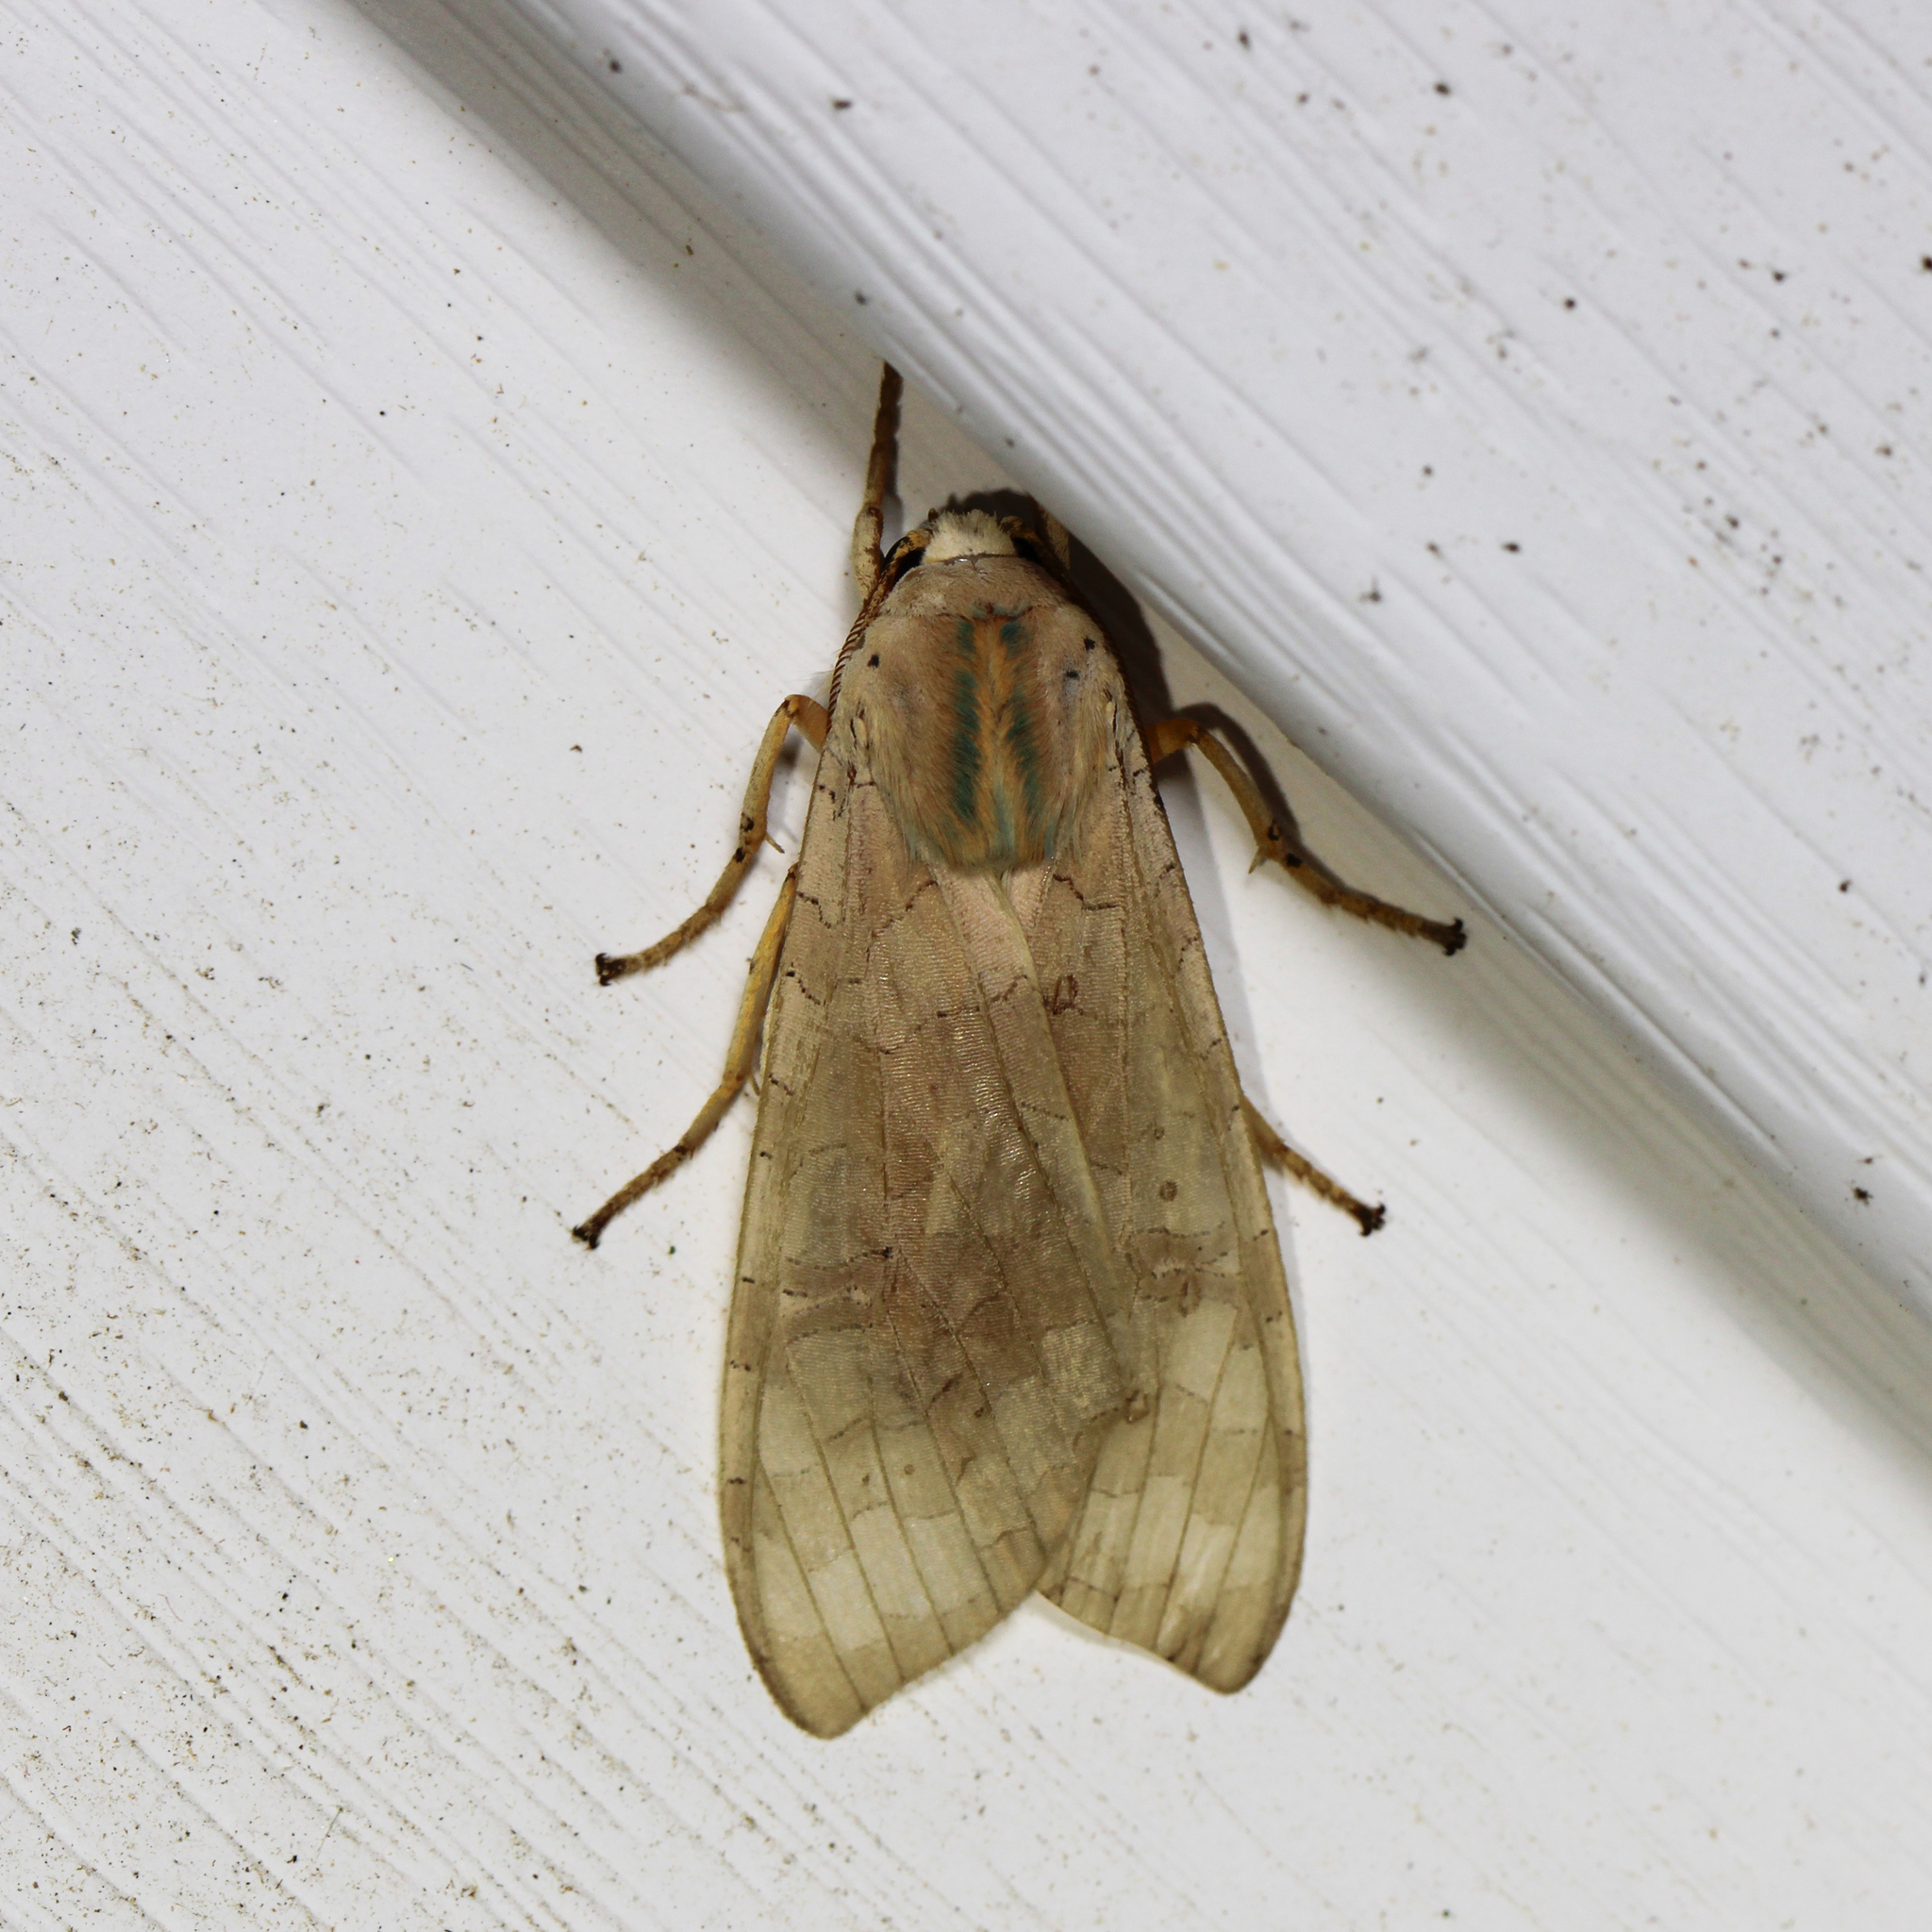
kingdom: Animalia
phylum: Arthropoda
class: Insecta
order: Lepidoptera
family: Erebidae
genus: Halysidota
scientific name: Halysidota
